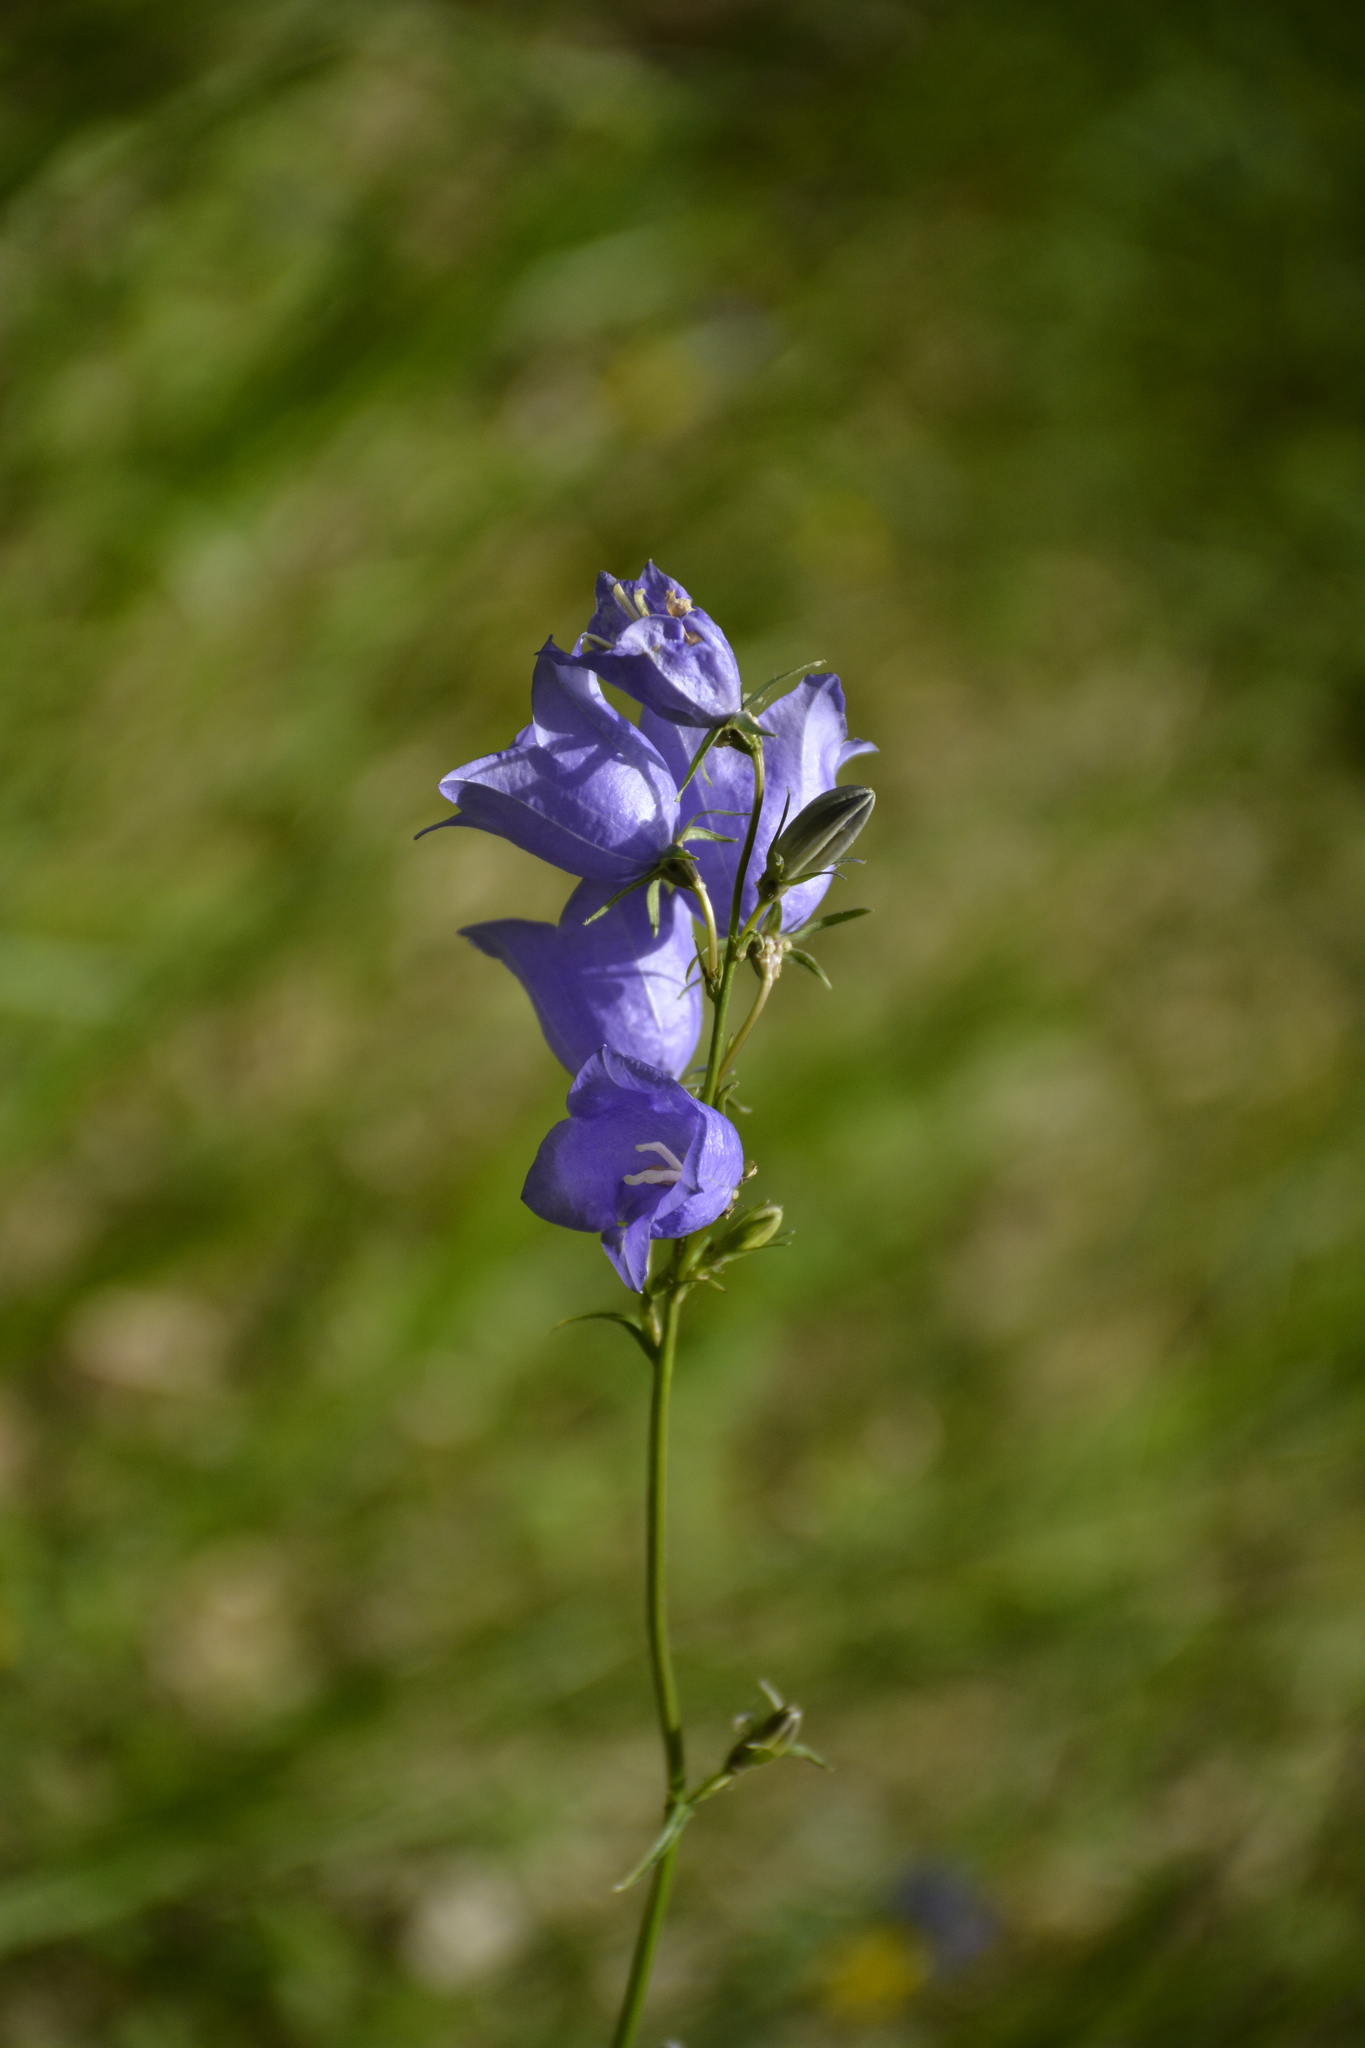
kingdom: Plantae
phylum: Tracheophyta
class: Magnoliopsida
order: Asterales
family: Campanulaceae
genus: Campanula
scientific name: Campanula persicifolia
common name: Peach-leaved bellflower
